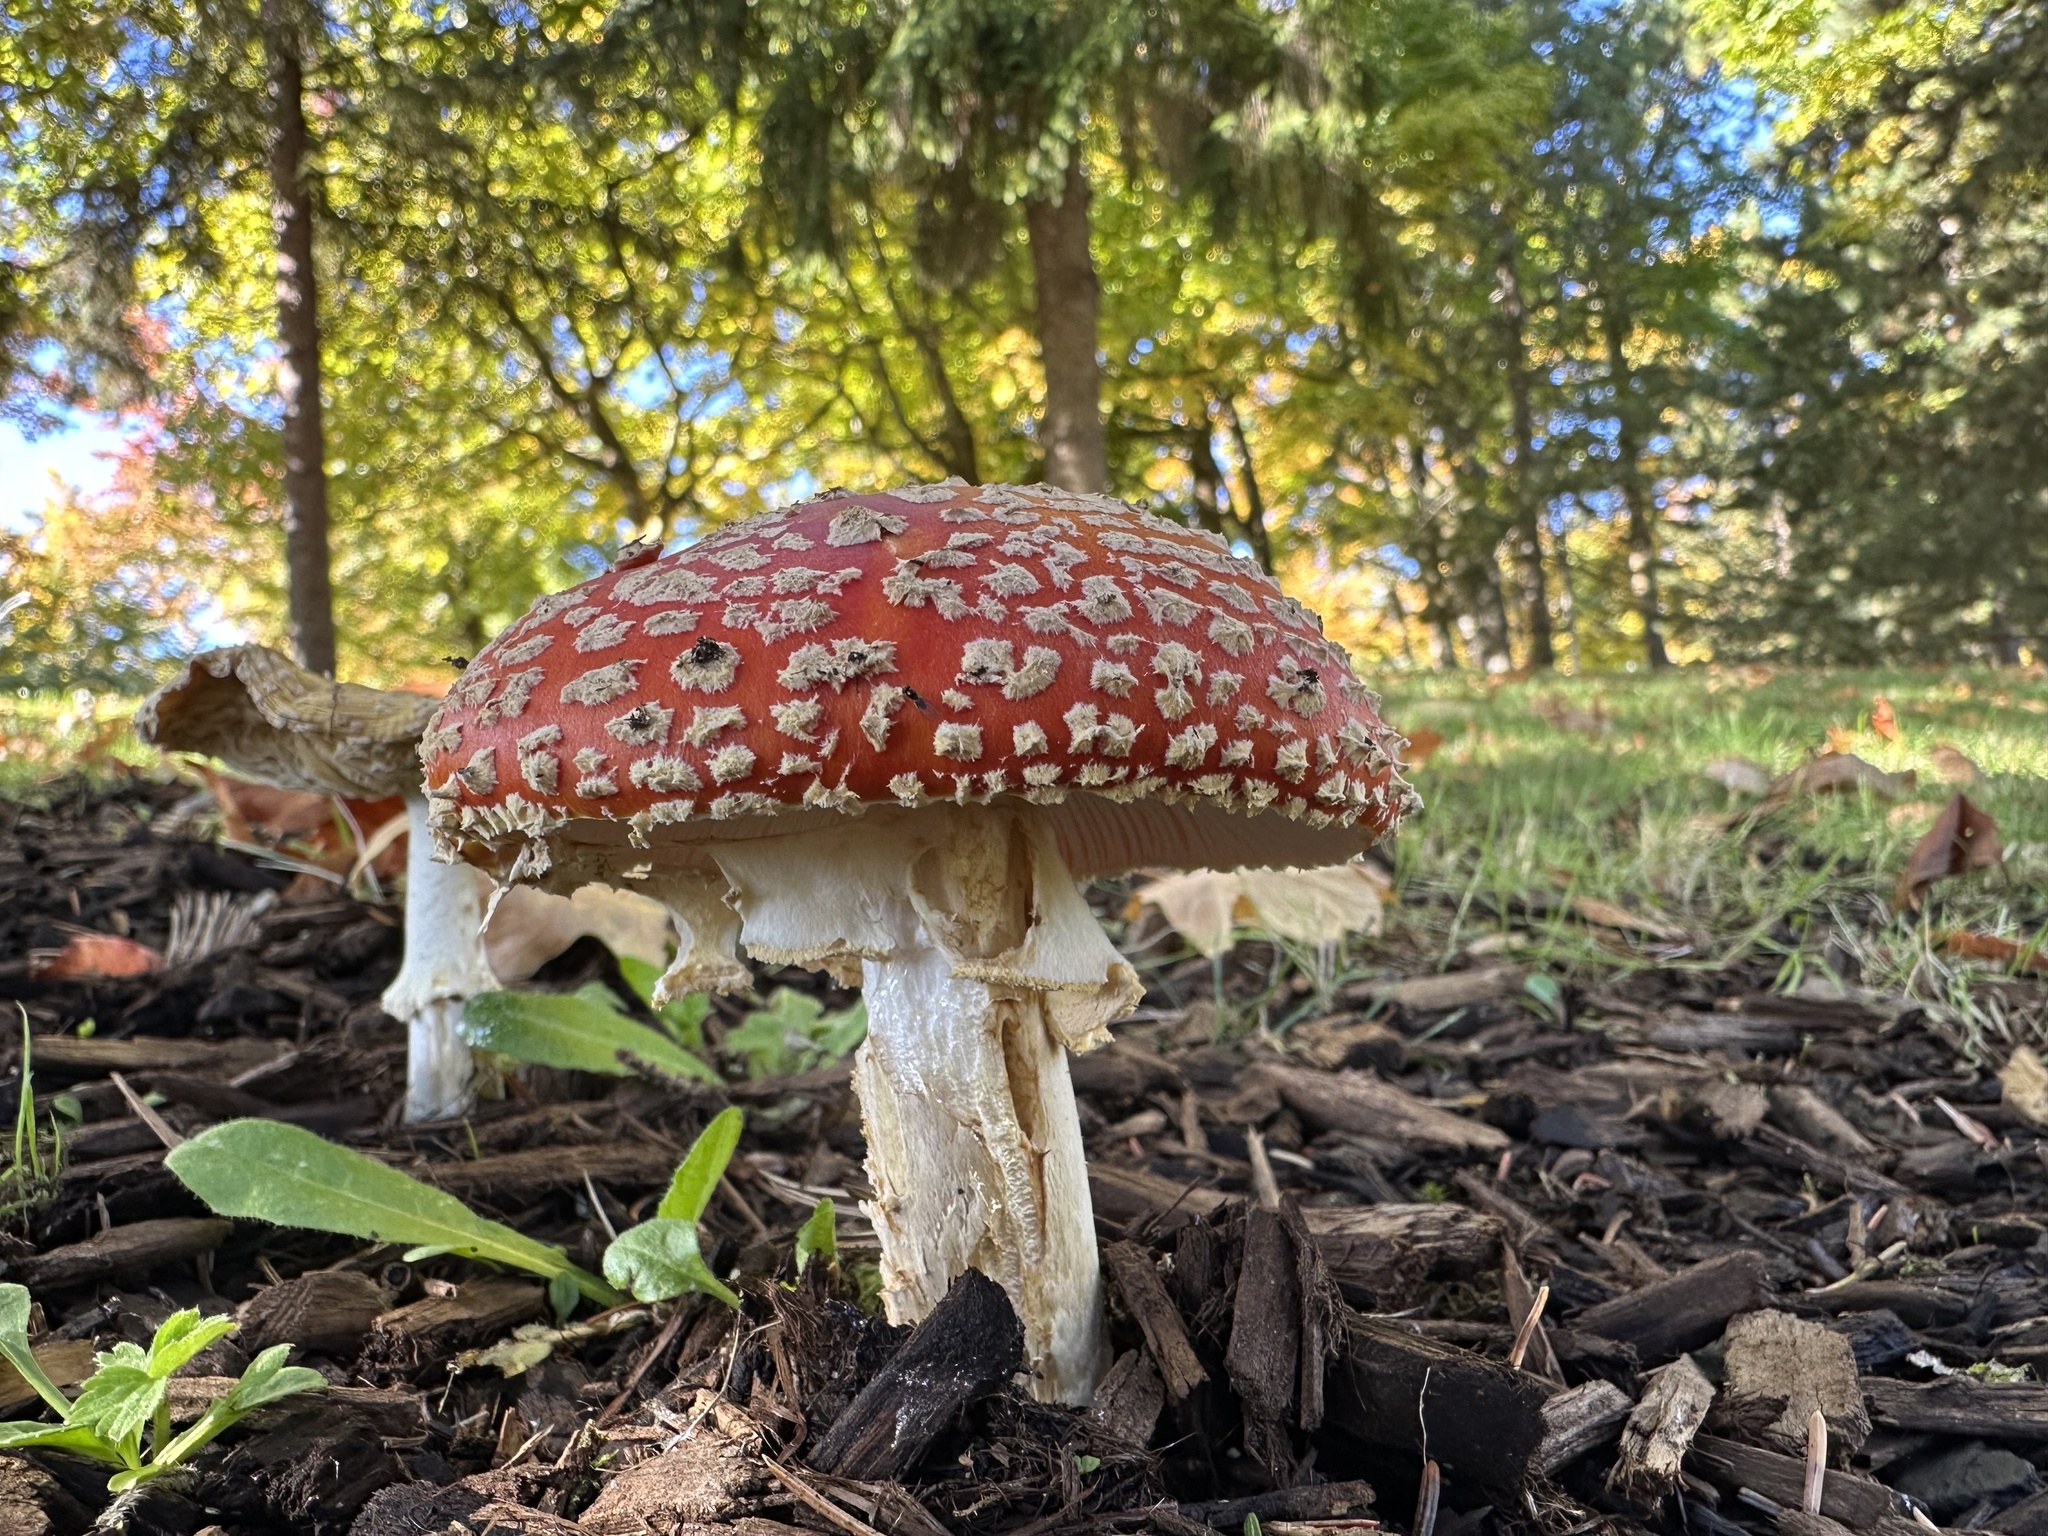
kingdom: Fungi
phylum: Basidiomycota
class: Agaricomycetes
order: Agaricales
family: Amanitaceae
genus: Amanita
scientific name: Amanita muscaria
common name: Fly agaric
